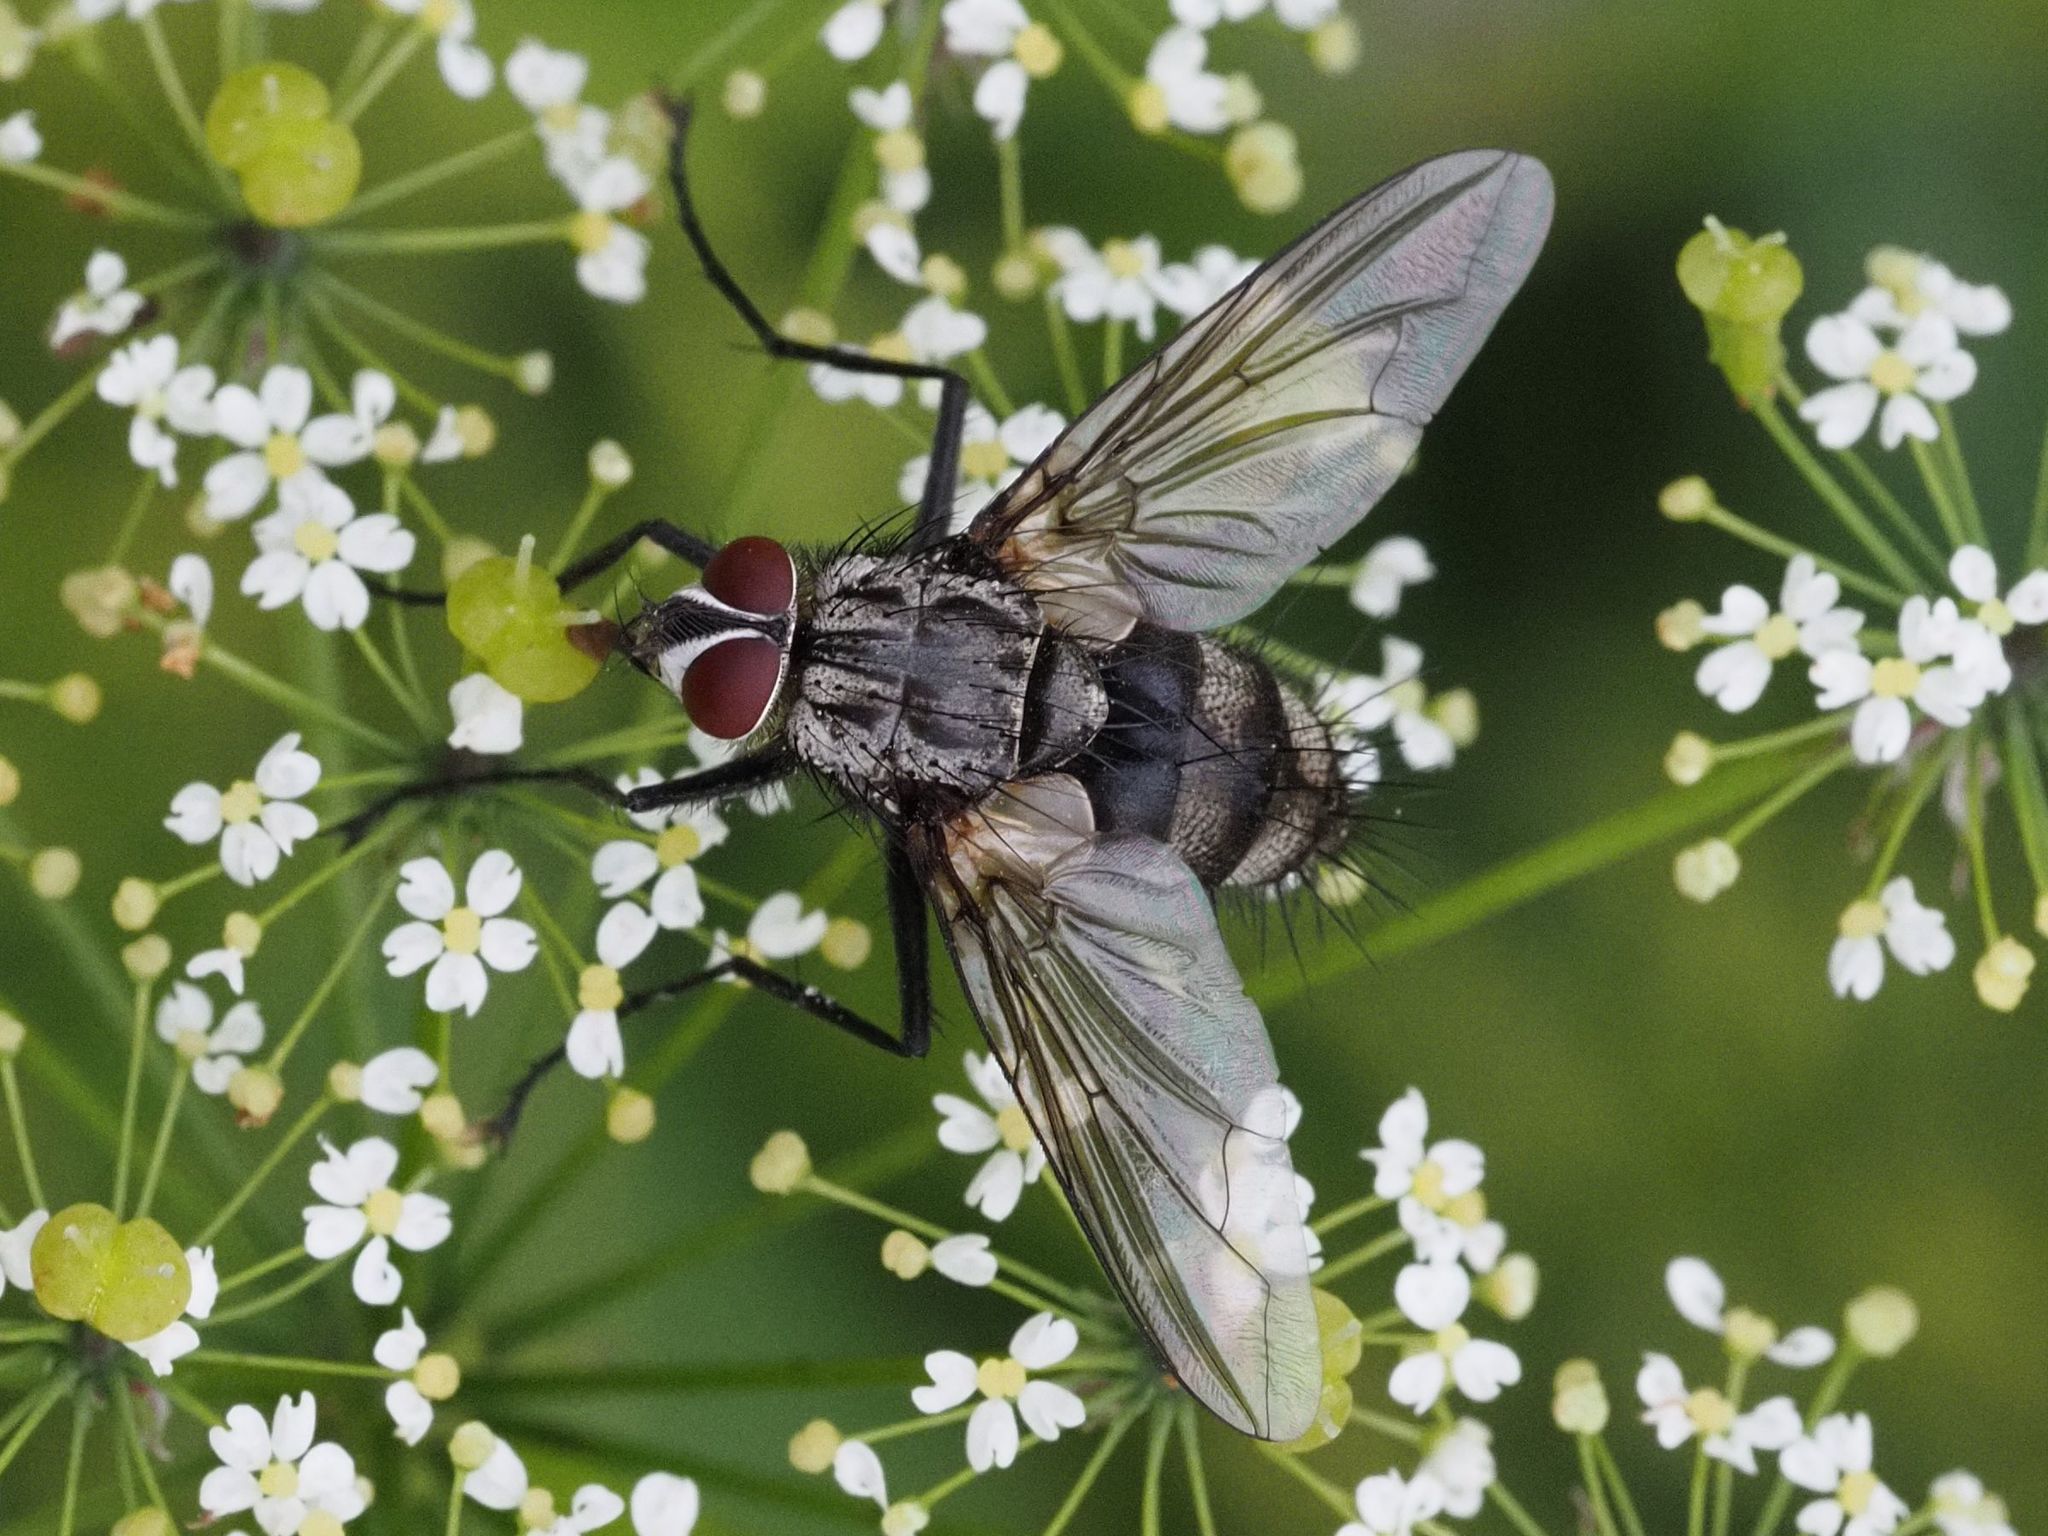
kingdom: Animalia
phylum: Arthropoda
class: Insecta
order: Diptera
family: Tachinidae
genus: Dinera
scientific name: Dinera ferina
